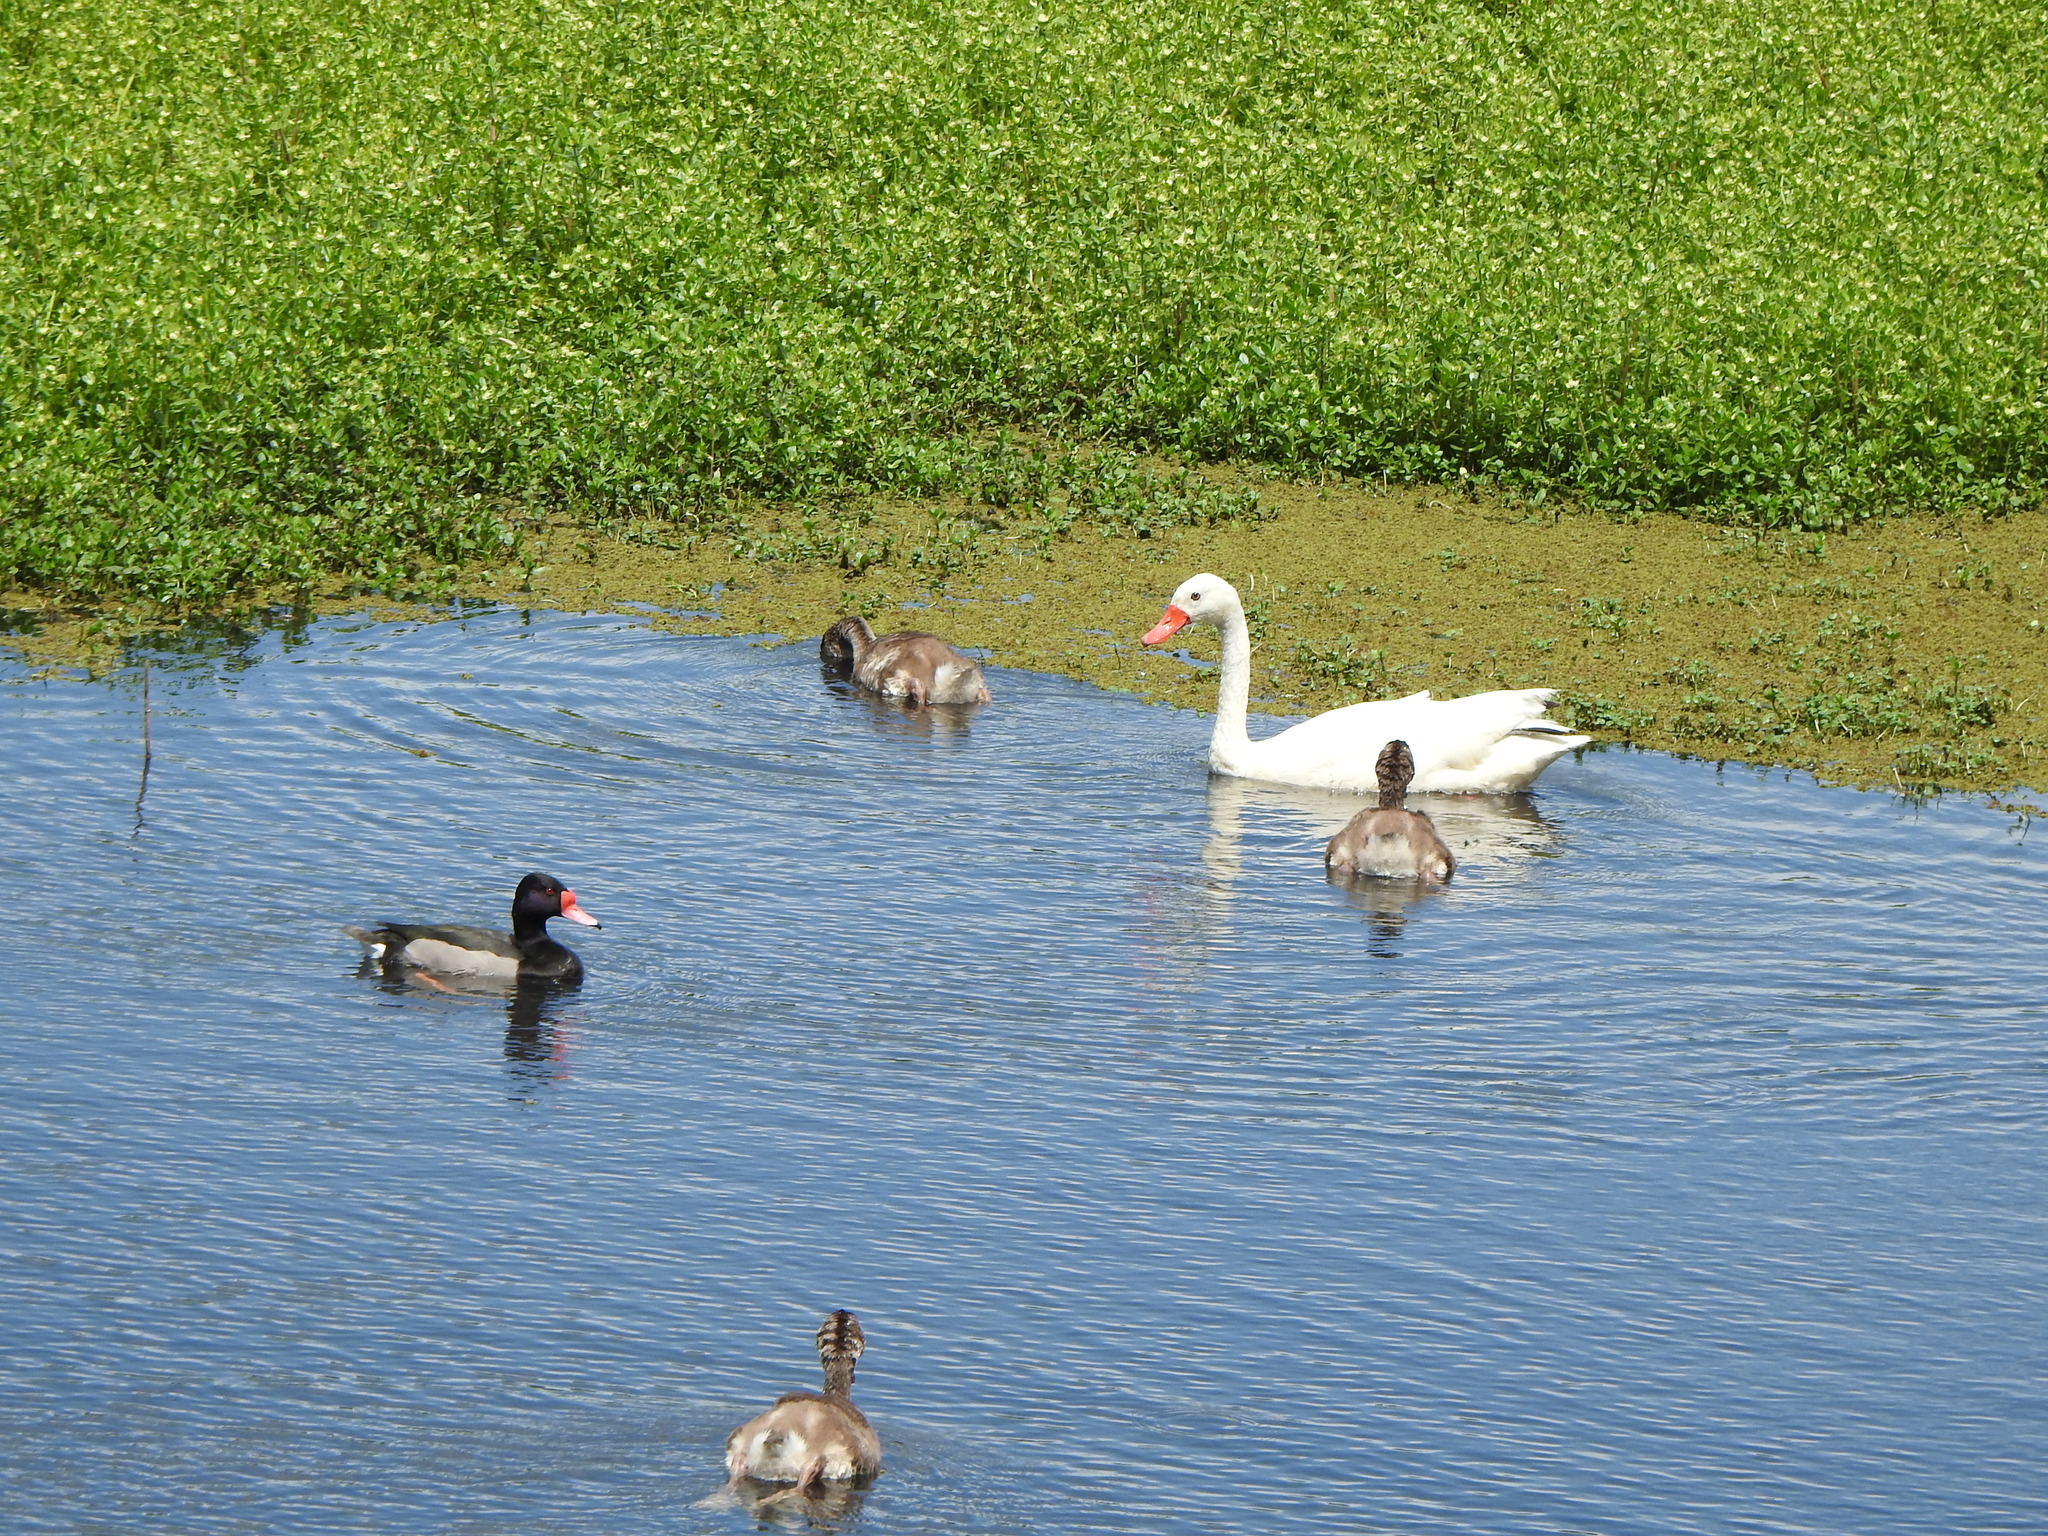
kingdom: Animalia
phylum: Chordata
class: Aves
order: Anseriformes
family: Anatidae
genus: Coscoroba
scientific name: Coscoroba coscoroba
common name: Coscoroba swan
